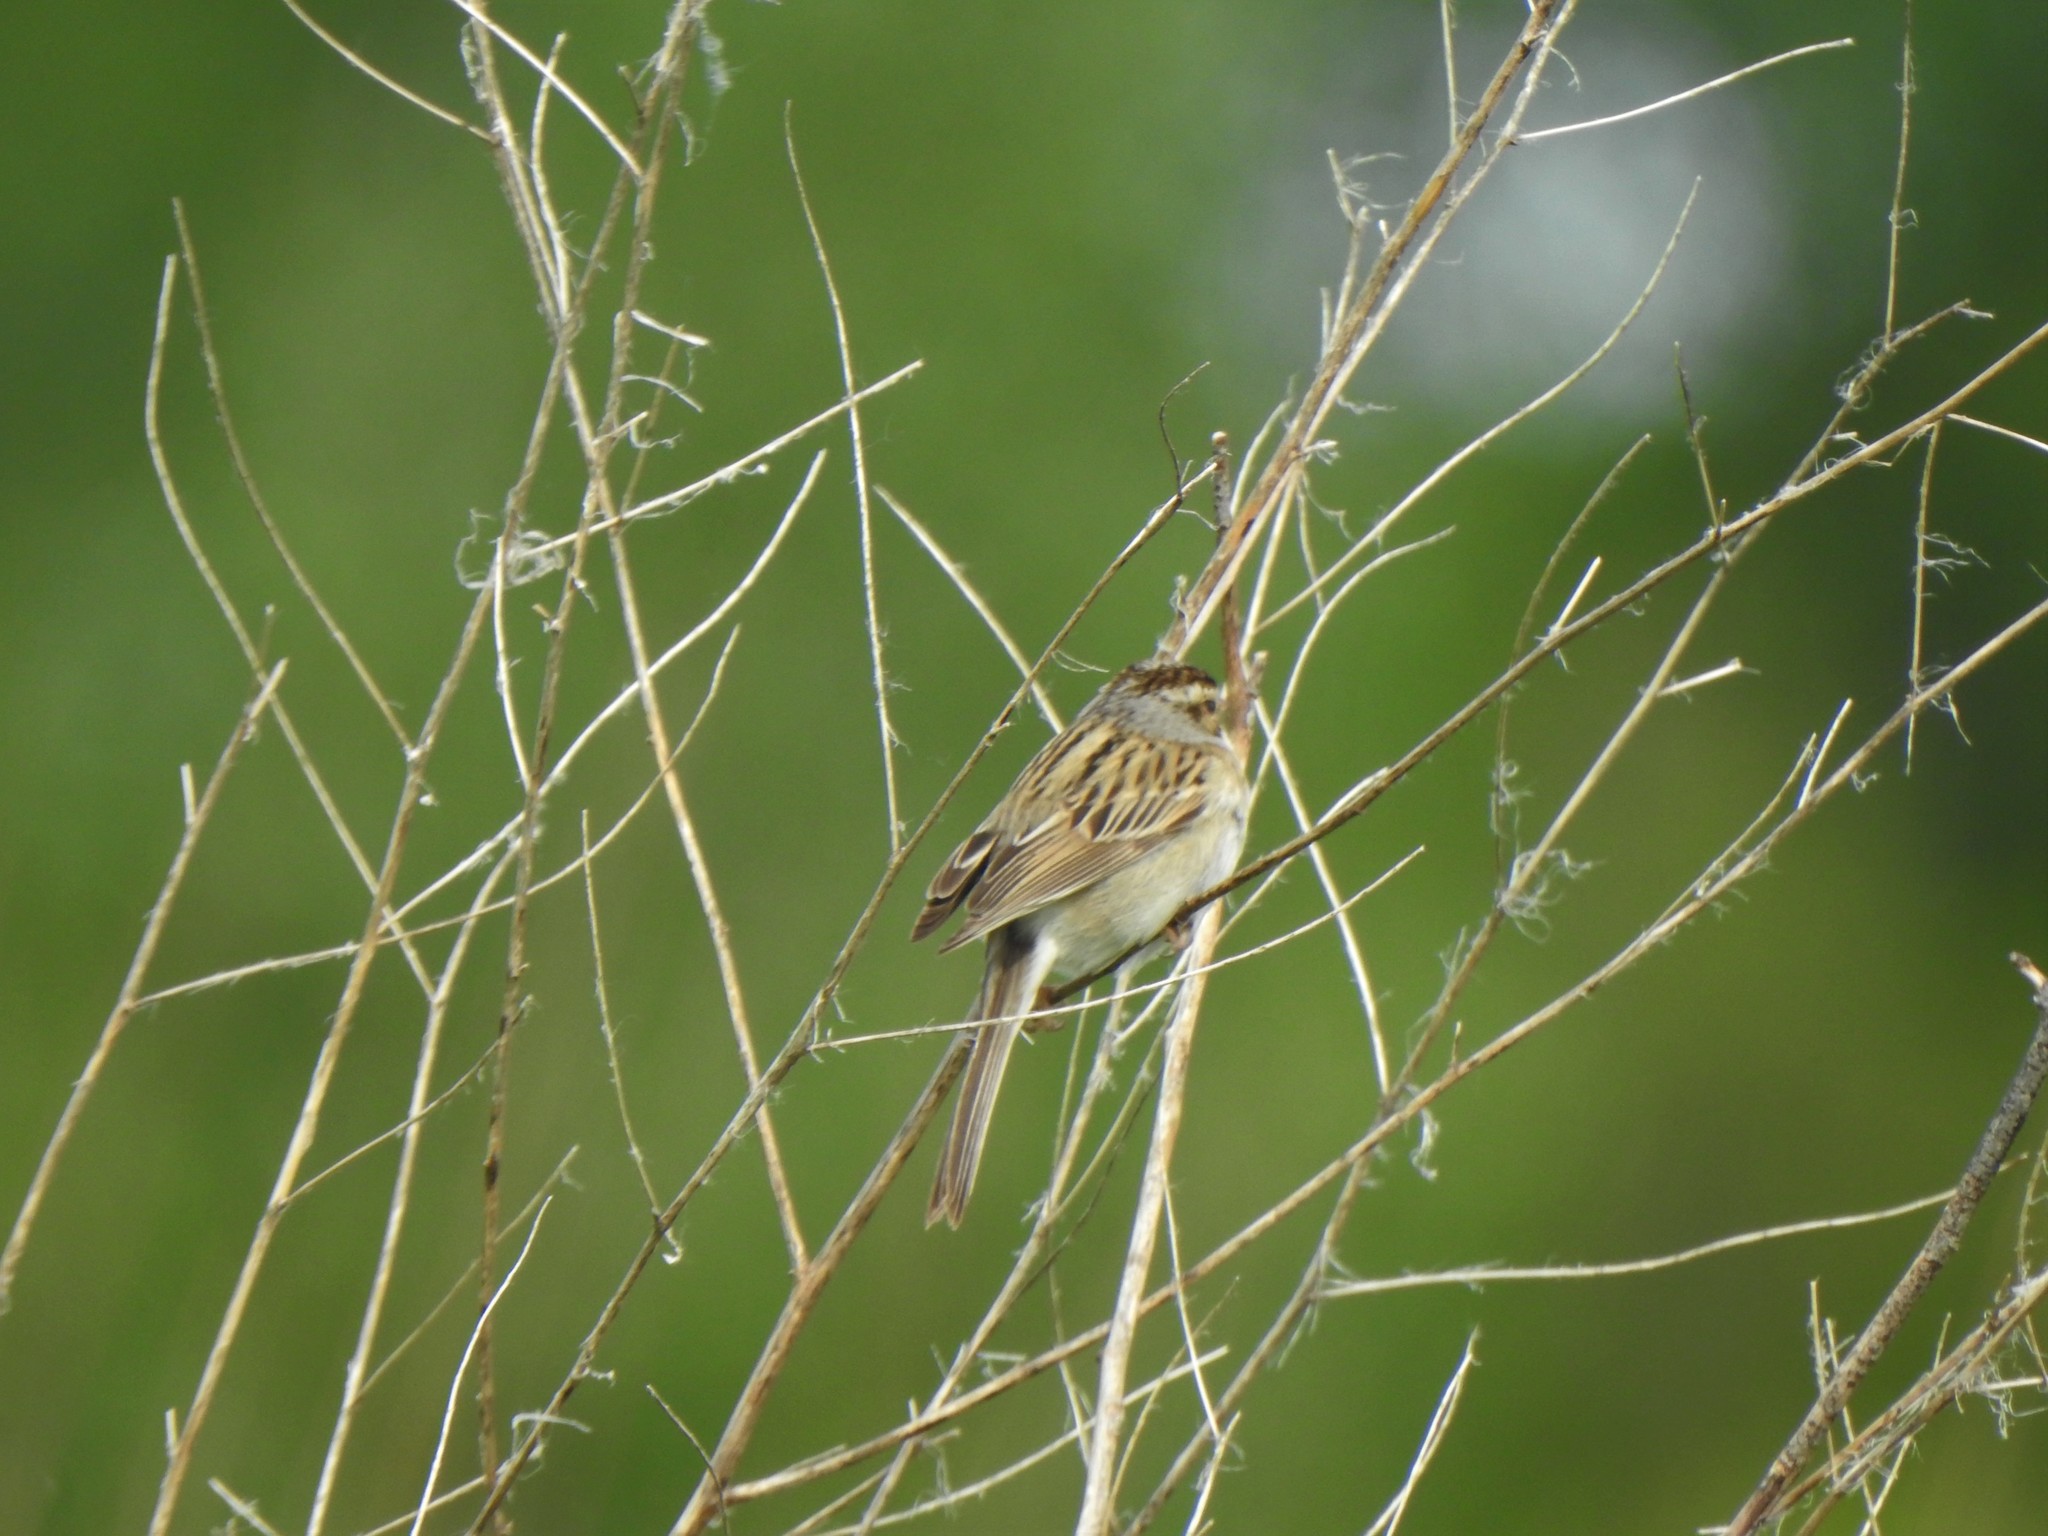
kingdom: Animalia
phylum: Chordata
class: Aves
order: Passeriformes
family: Passerellidae
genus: Spizella
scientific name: Spizella pallida
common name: Clay-colored sparrow
